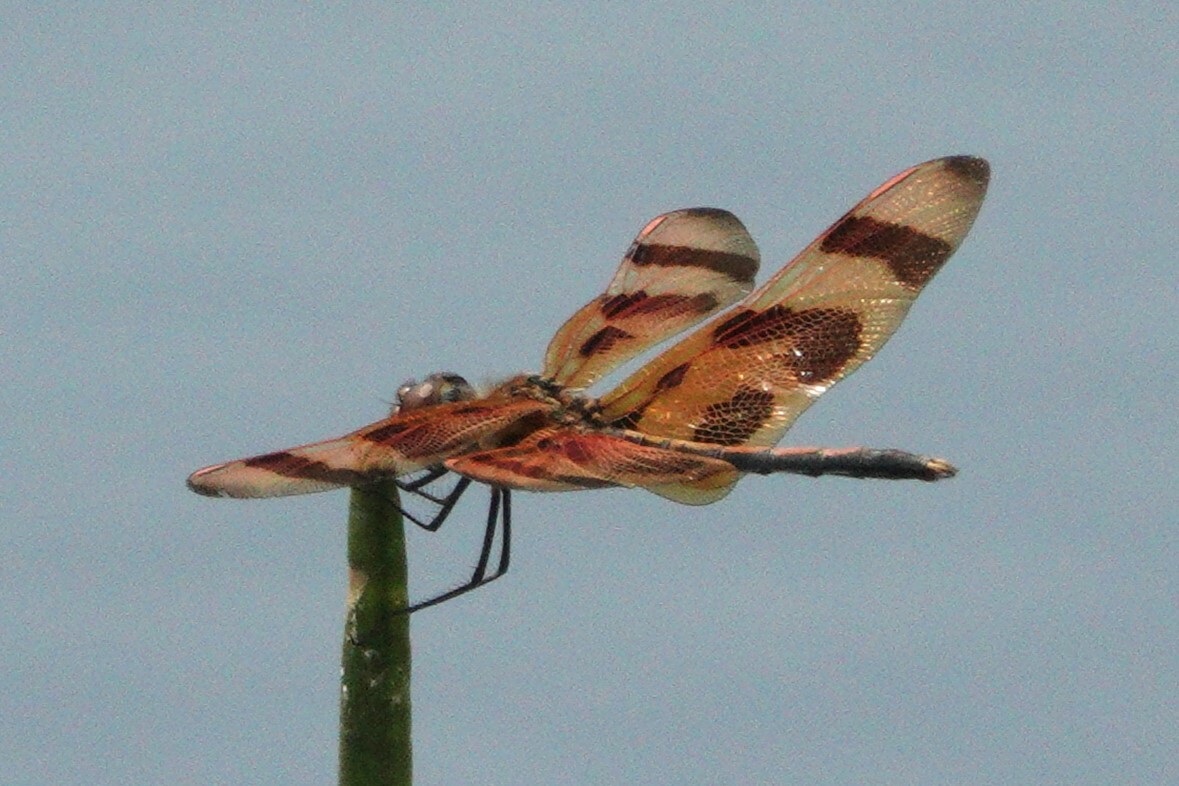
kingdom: Animalia
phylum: Arthropoda
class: Insecta
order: Odonata
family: Libellulidae
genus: Celithemis
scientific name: Celithemis eponina
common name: Halloween pennant
